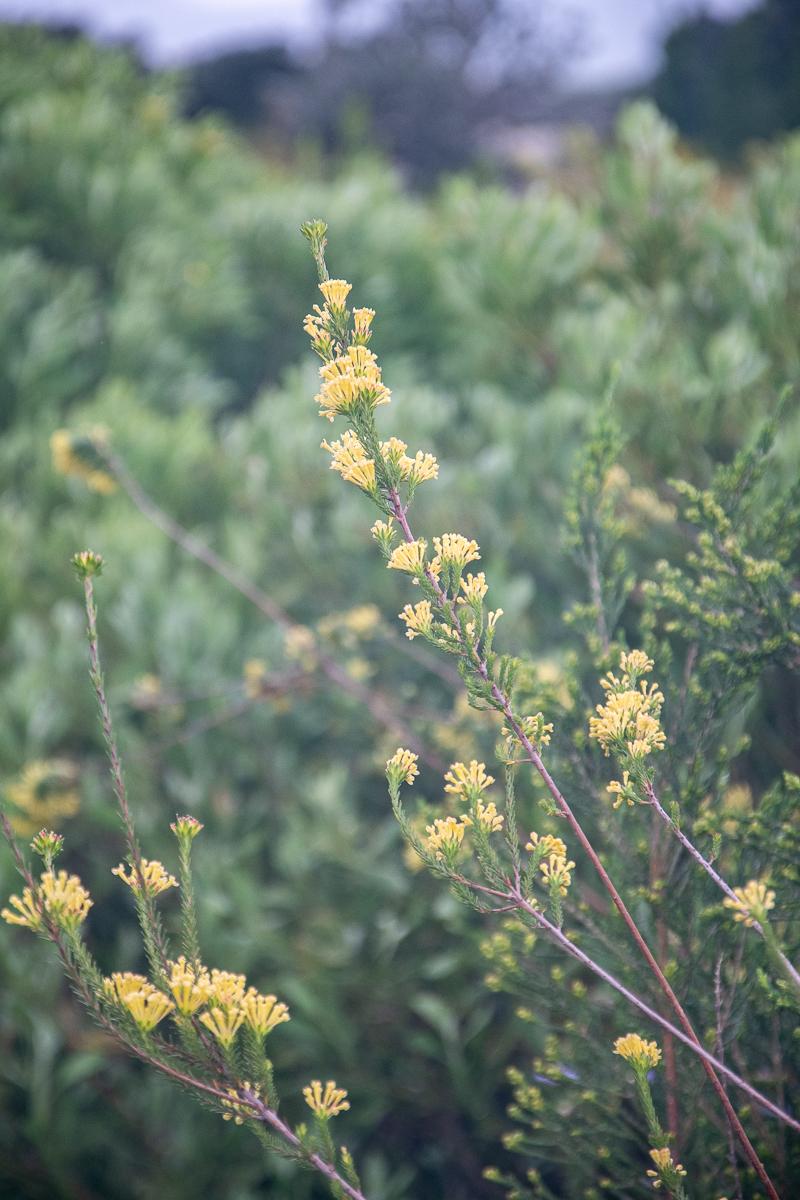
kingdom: Plantae
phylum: Tracheophyta
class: Magnoliopsida
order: Malvales
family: Thymelaeaceae
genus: Gnidia
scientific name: Gnidia squarrosa
